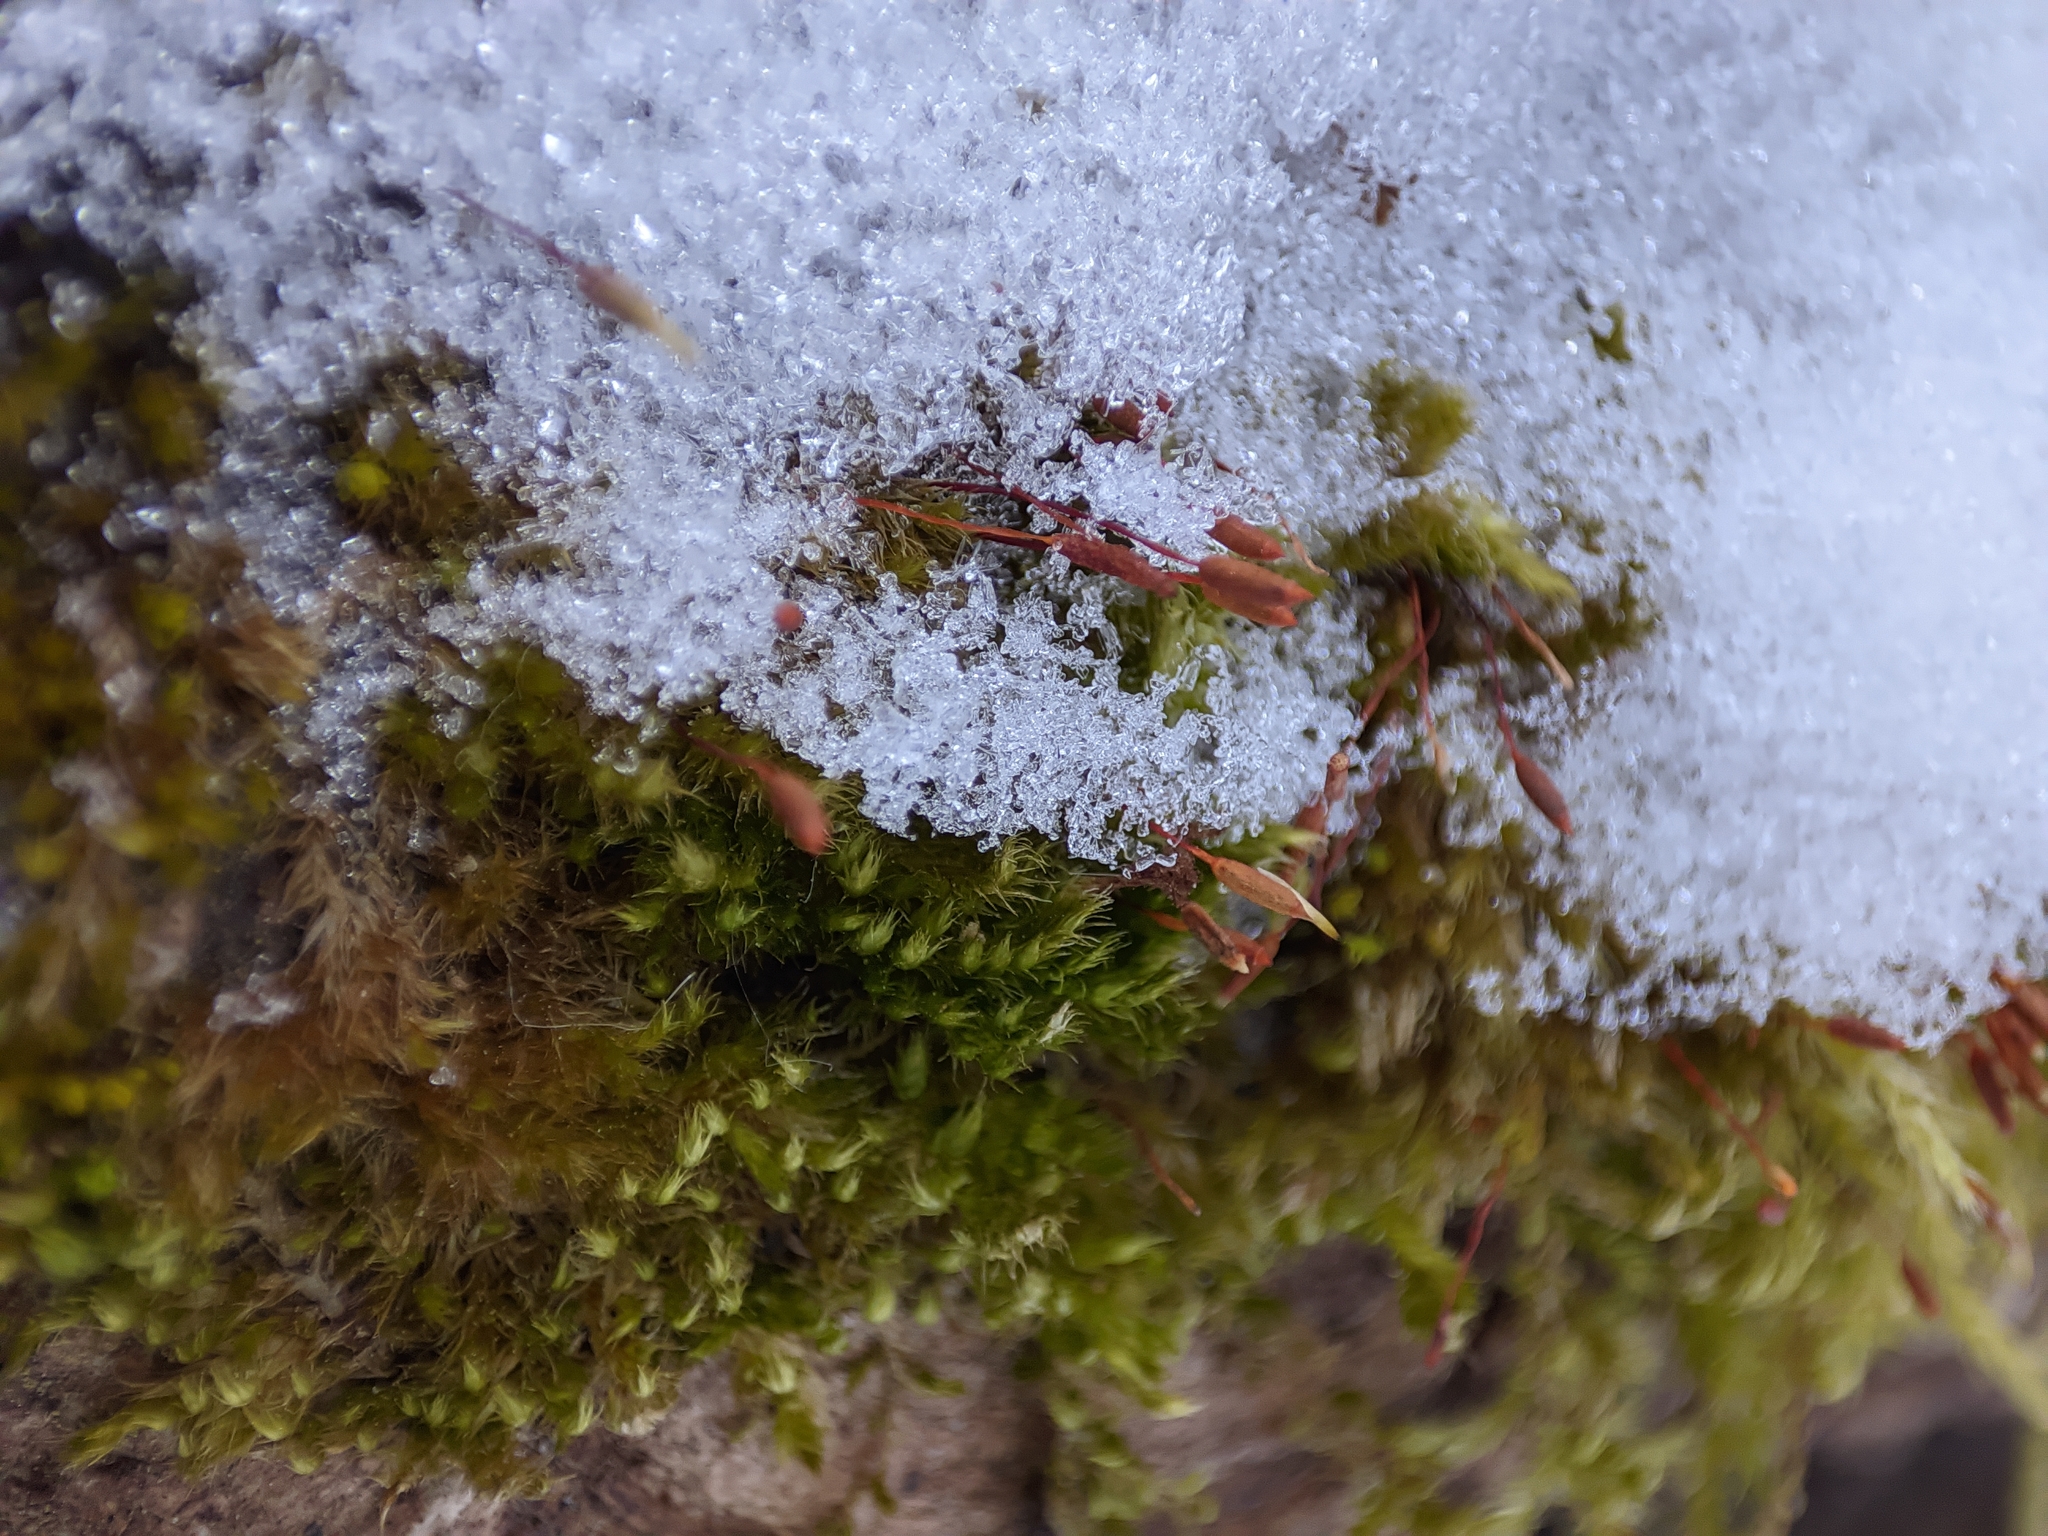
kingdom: Plantae
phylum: Bryophyta
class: Bryopsida
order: Hypnales
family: Pylaisiaceae
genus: Pylaisia
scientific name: Pylaisia polyantha
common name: Many-flowered leskea
